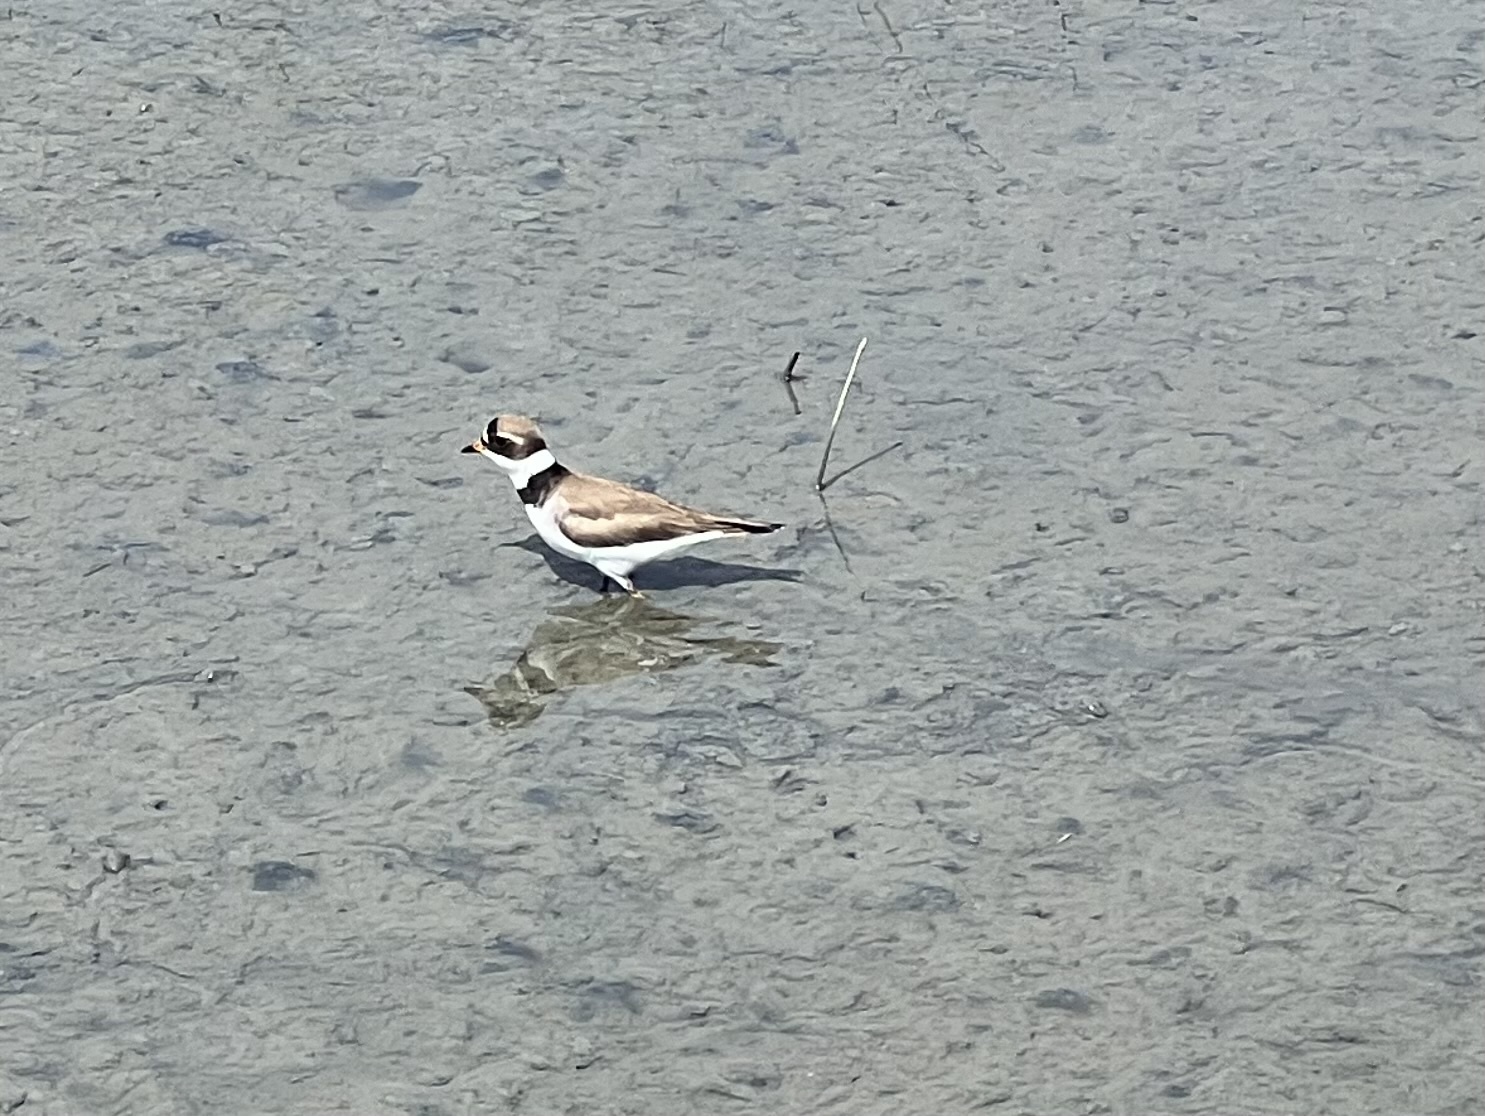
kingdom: Animalia
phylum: Chordata
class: Aves
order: Charadriiformes
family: Charadriidae
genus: Charadrius
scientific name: Charadrius semipalmatus
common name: Semipalmated plover
